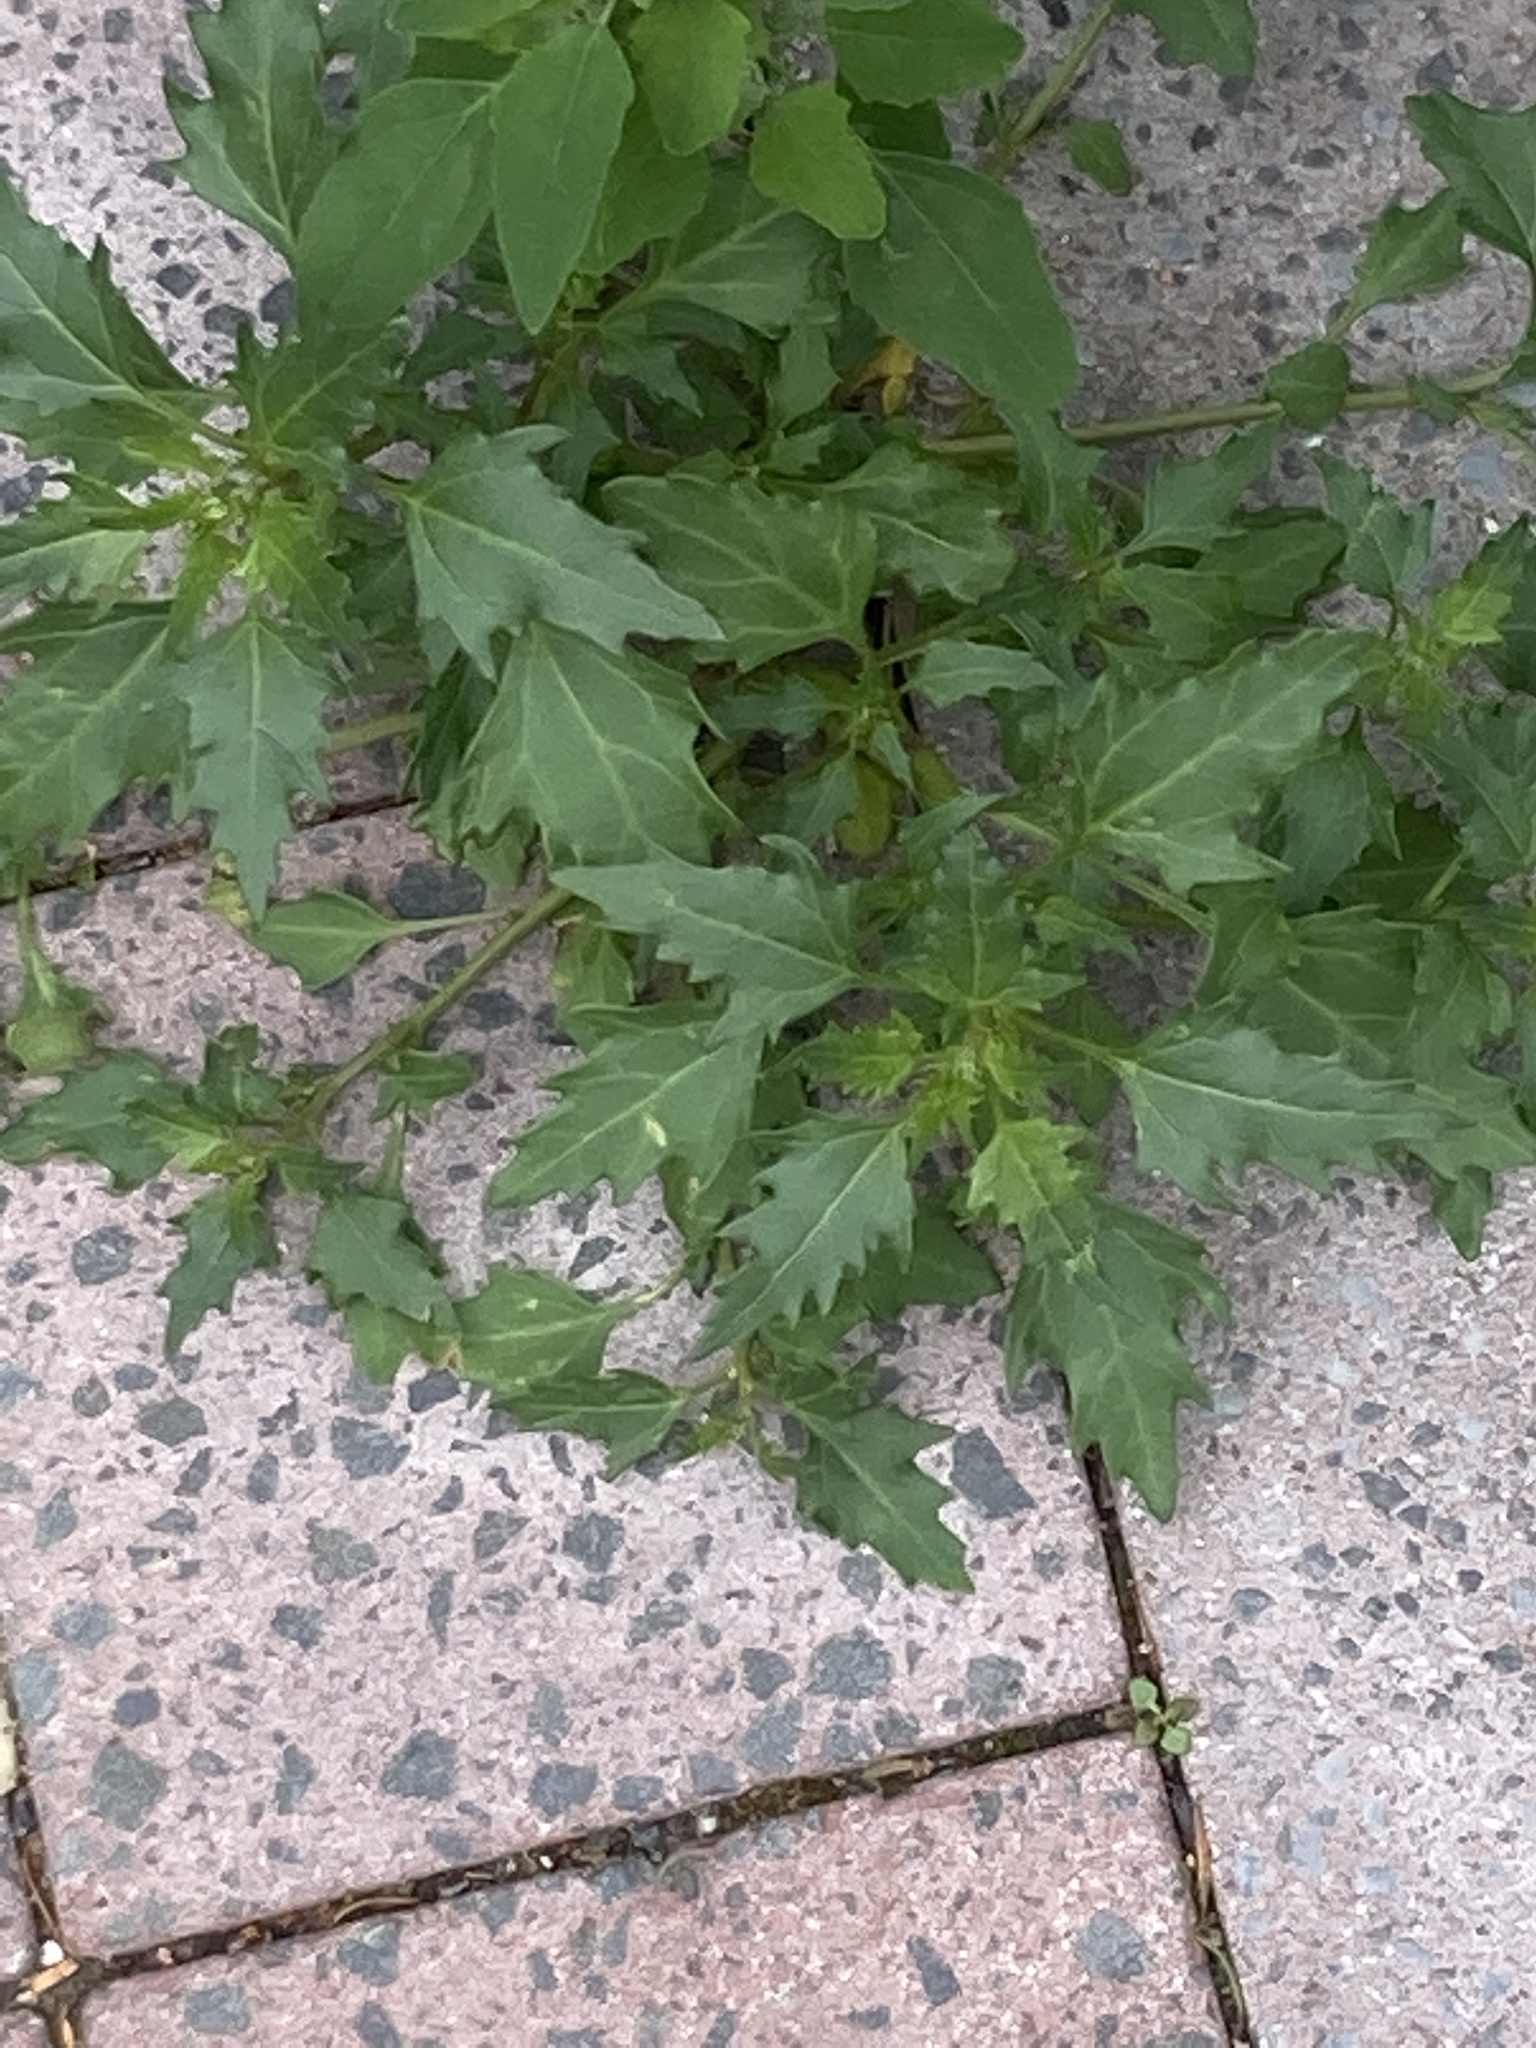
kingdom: Plantae
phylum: Tracheophyta
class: Magnoliopsida
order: Caryophyllales
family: Amaranthaceae
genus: Oxybasis
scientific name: Oxybasis rubra
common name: Red goosefoot
